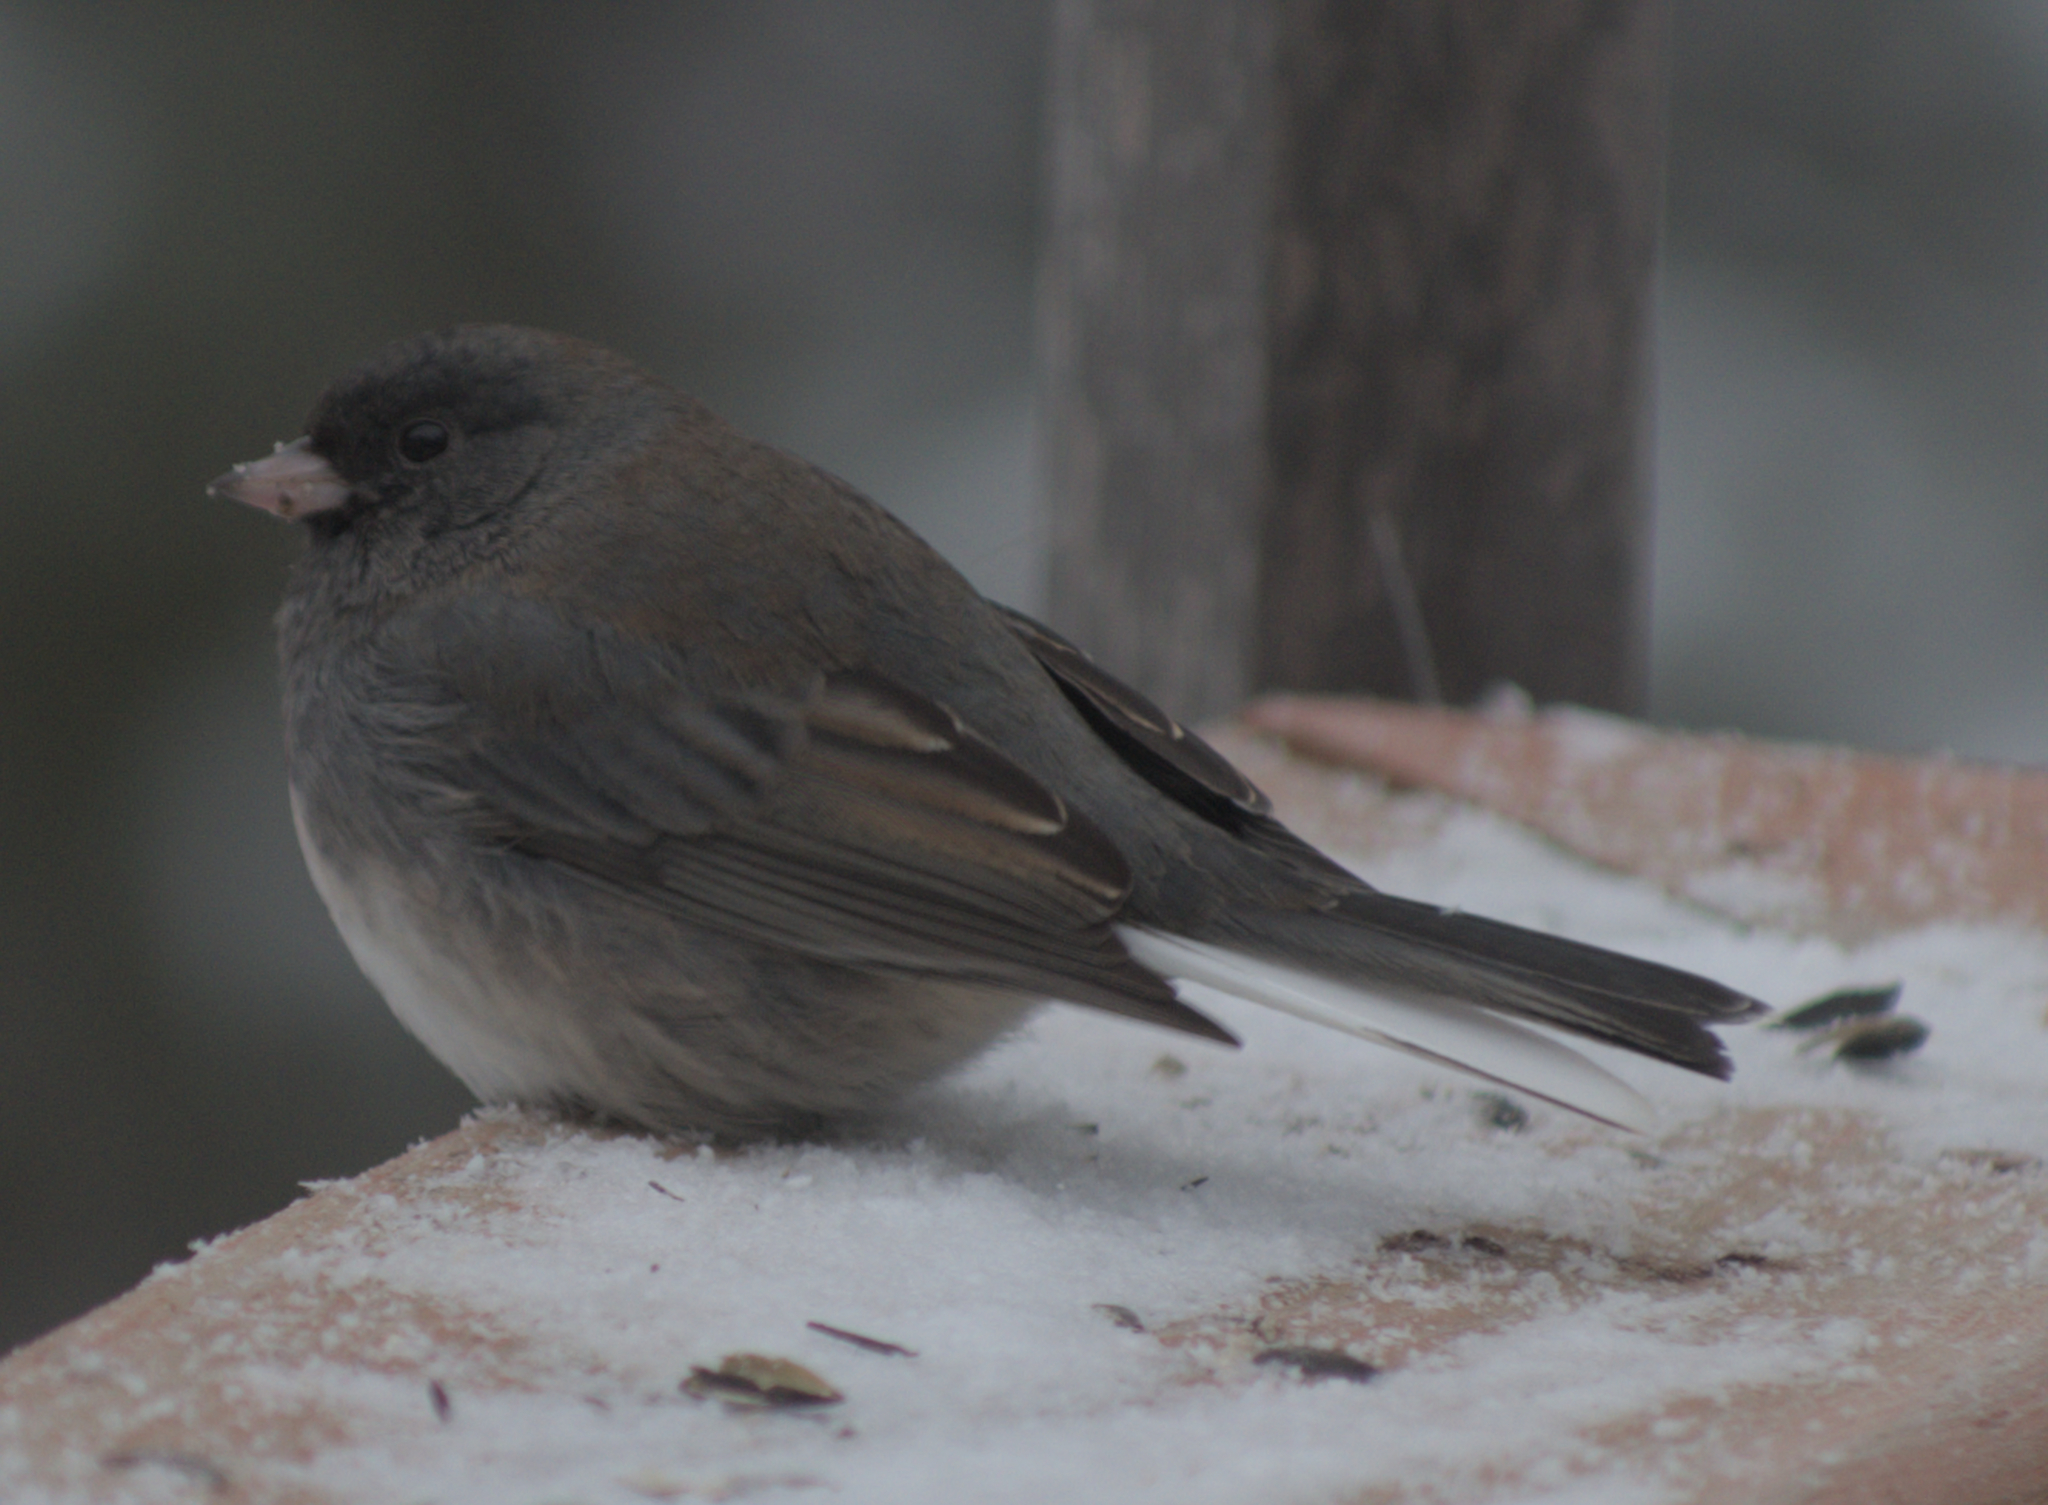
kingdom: Animalia
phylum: Chordata
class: Aves
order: Passeriformes
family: Passerellidae
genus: Junco
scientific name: Junco hyemalis
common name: Dark-eyed junco
